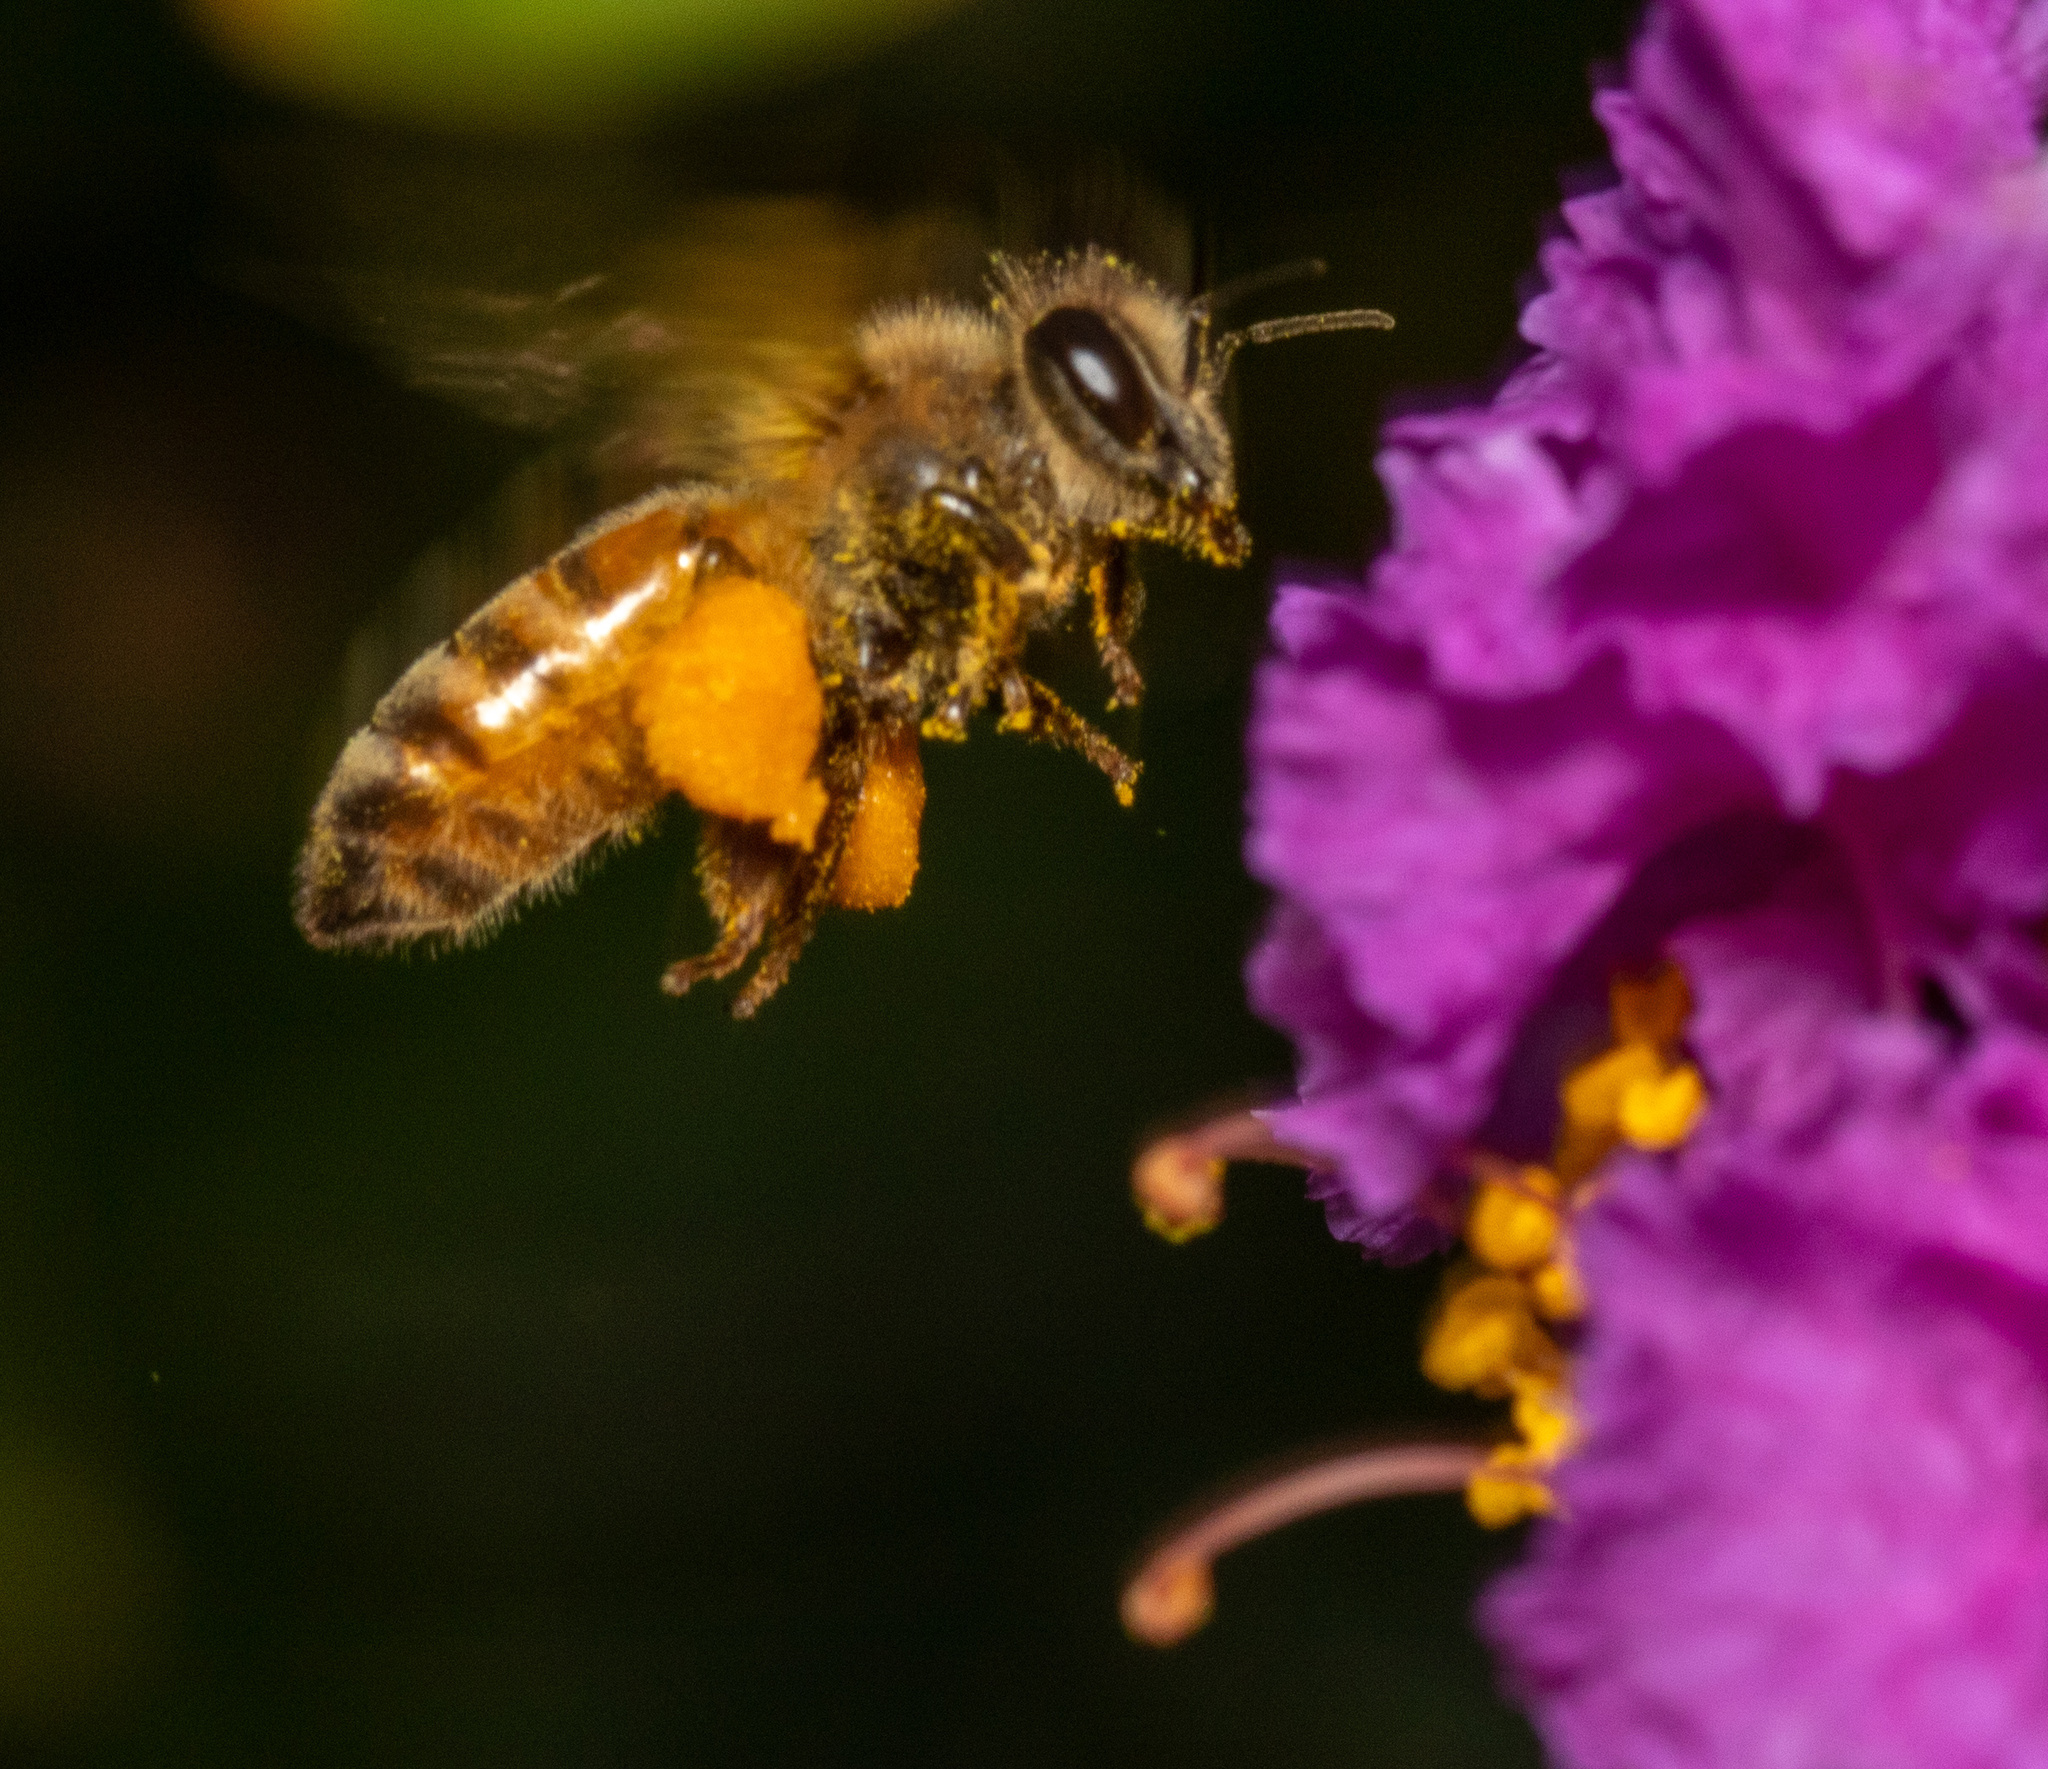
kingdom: Animalia
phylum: Arthropoda
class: Insecta
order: Hymenoptera
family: Apidae
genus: Apis
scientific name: Apis mellifera
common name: Honey bee
